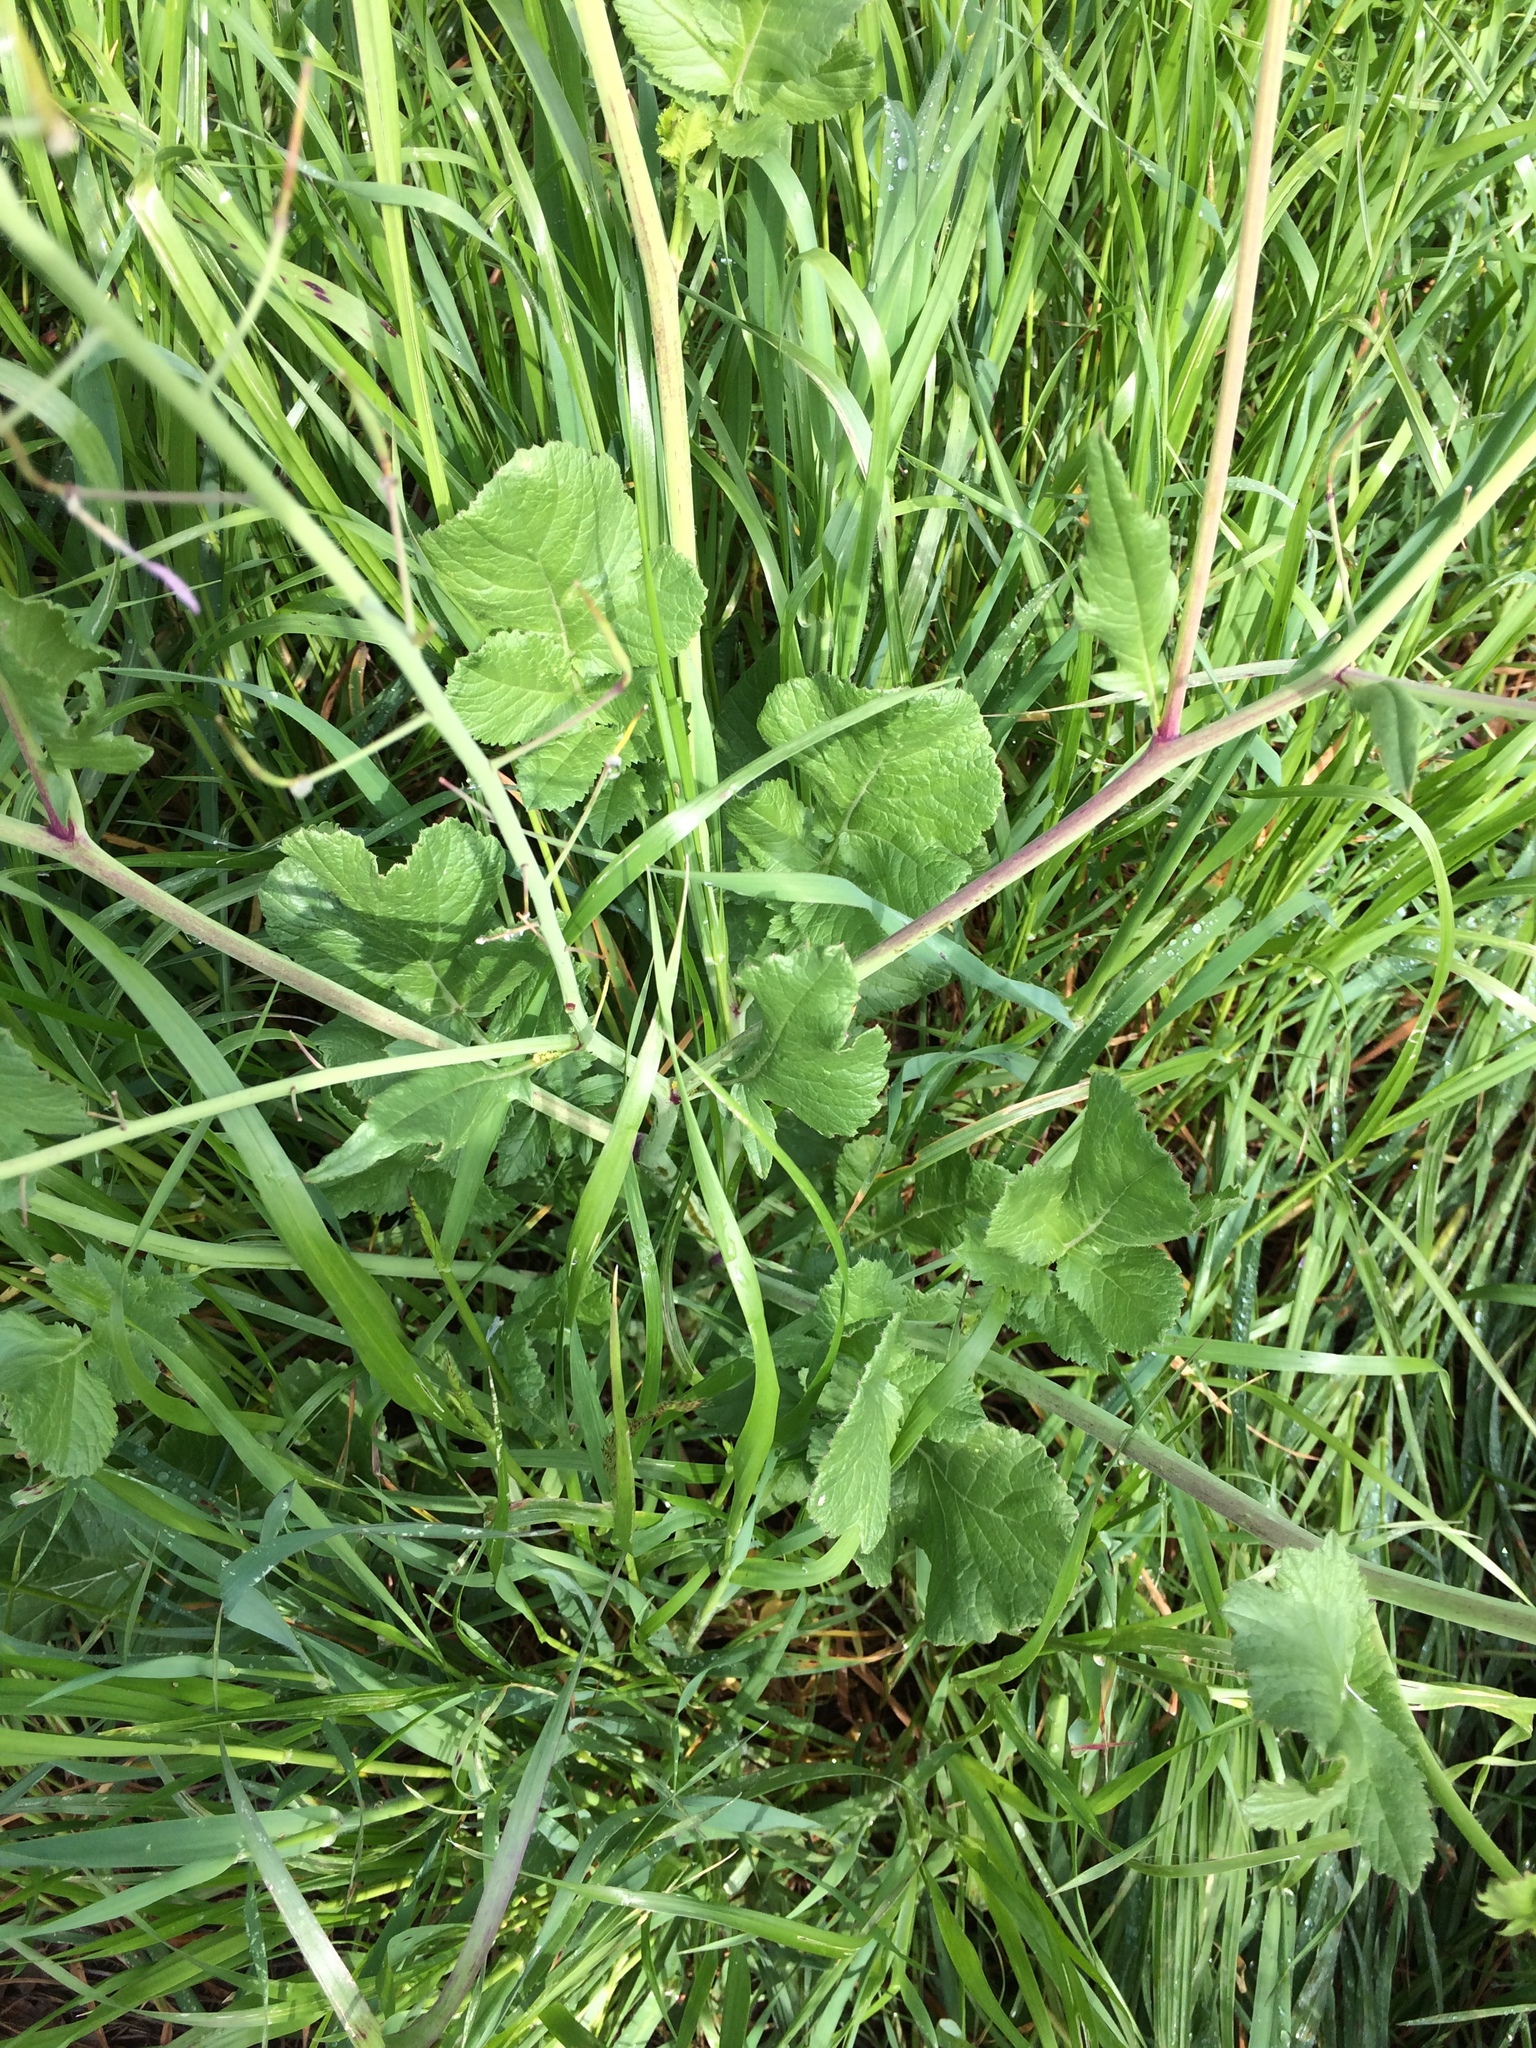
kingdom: Plantae
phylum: Tracheophyta
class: Magnoliopsida
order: Brassicales
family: Brassicaceae
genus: Raphanus
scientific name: Raphanus sativus
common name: Cultivated radish
